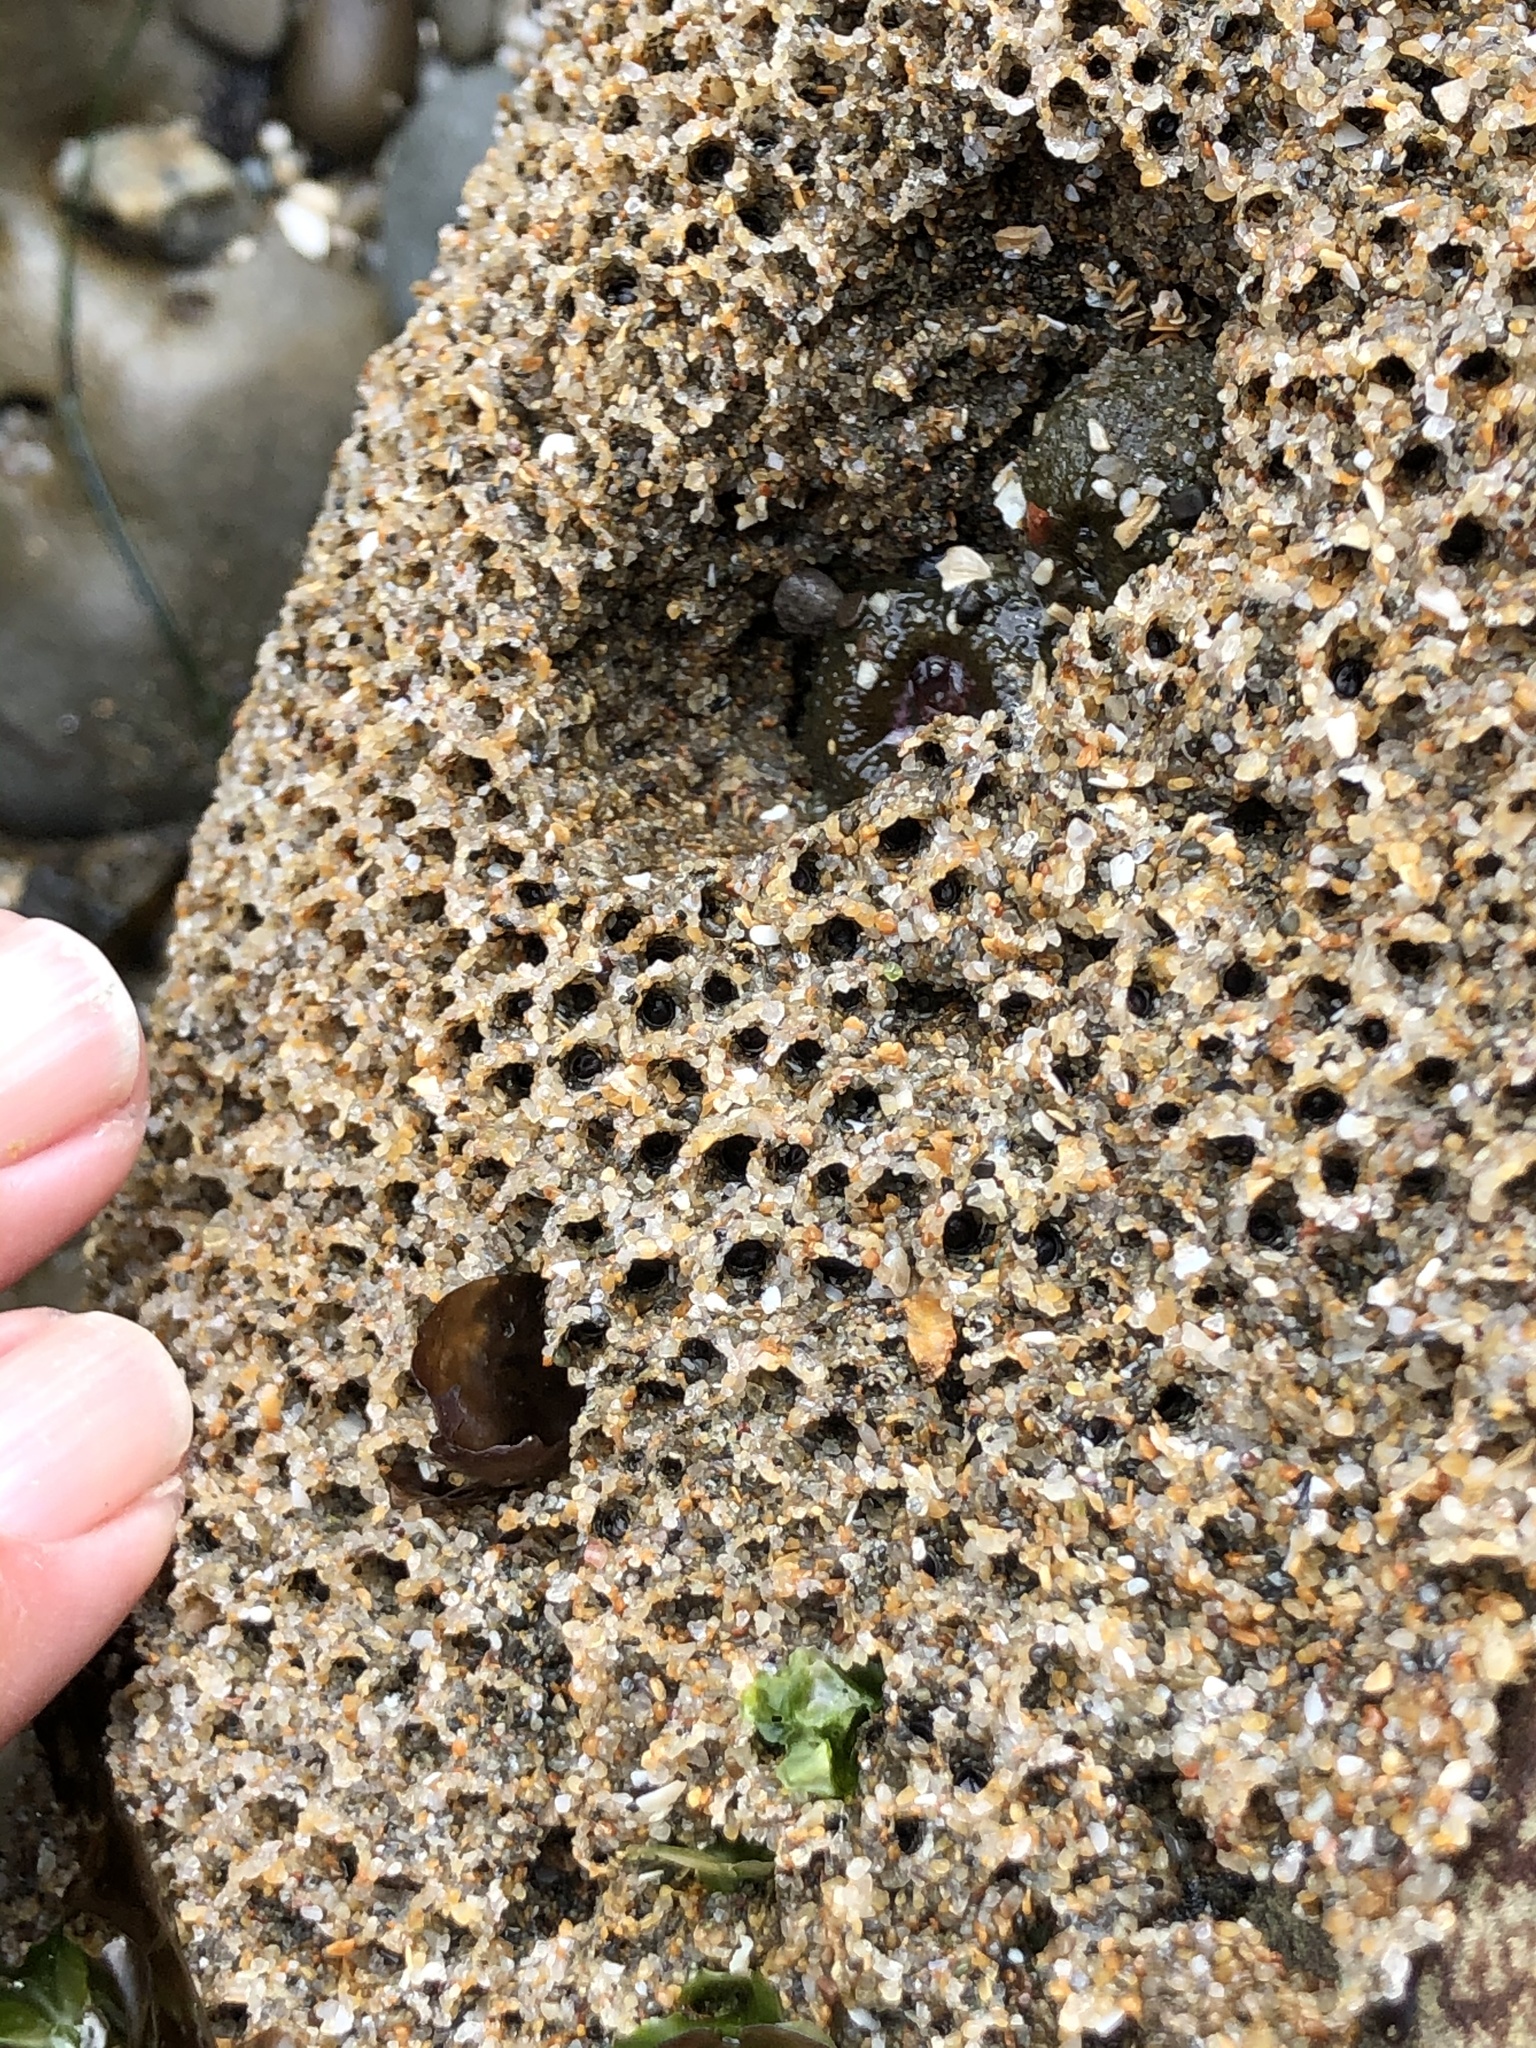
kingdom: Animalia
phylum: Annelida
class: Polychaeta
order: Sabellida
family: Sabellariidae
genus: Phragmatopoma
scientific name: Phragmatopoma californica
